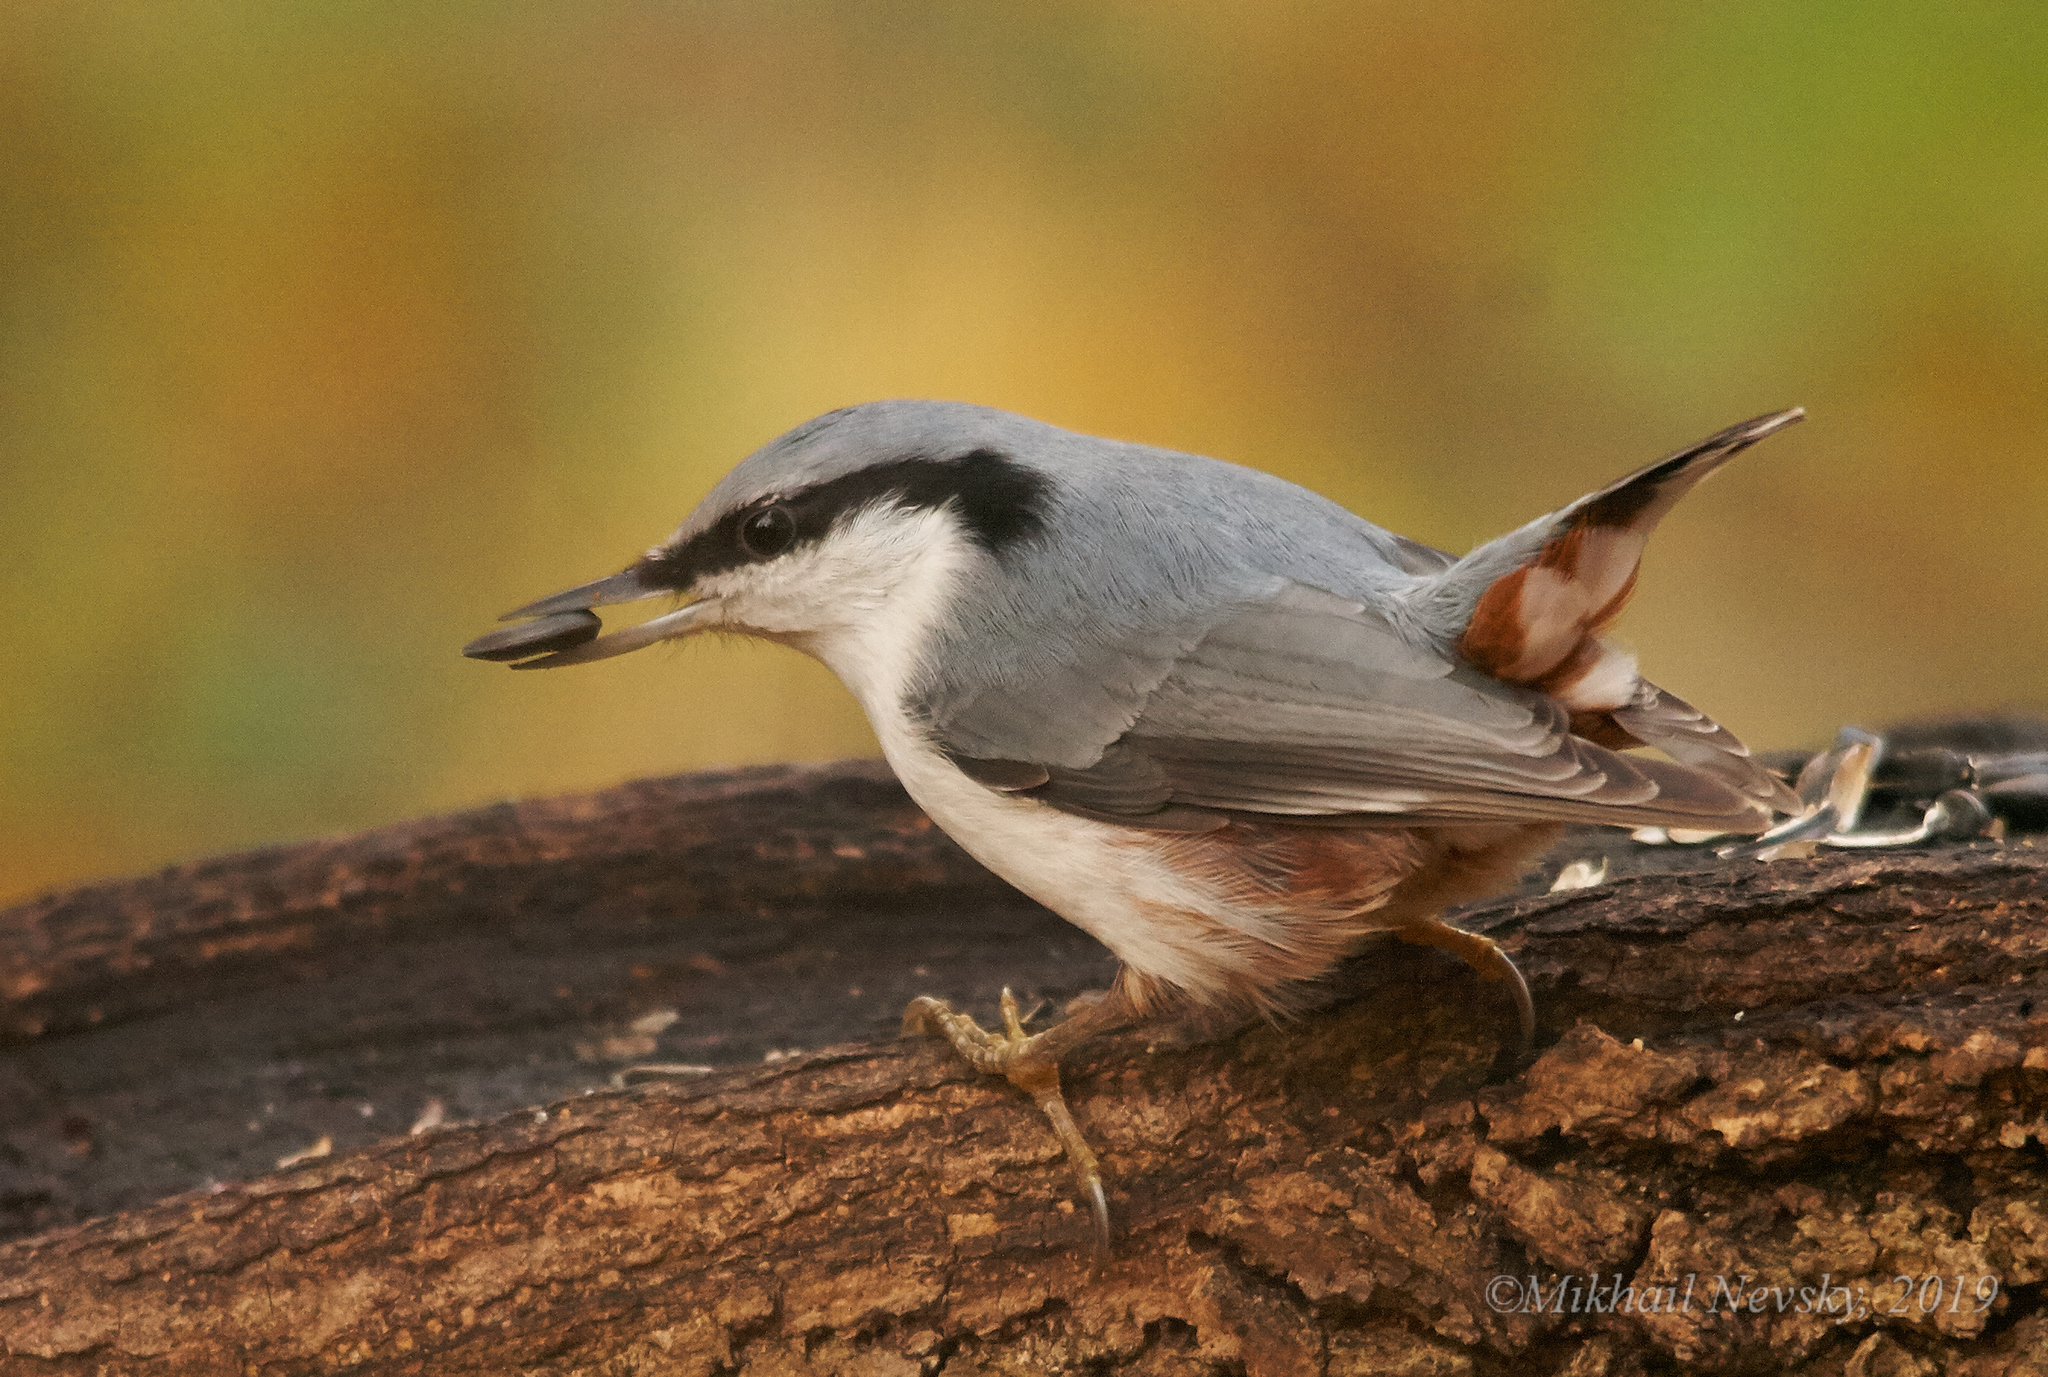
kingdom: Animalia
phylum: Chordata
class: Aves
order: Passeriformes
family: Sittidae
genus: Sitta
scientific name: Sitta europaea
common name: Eurasian nuthatch
